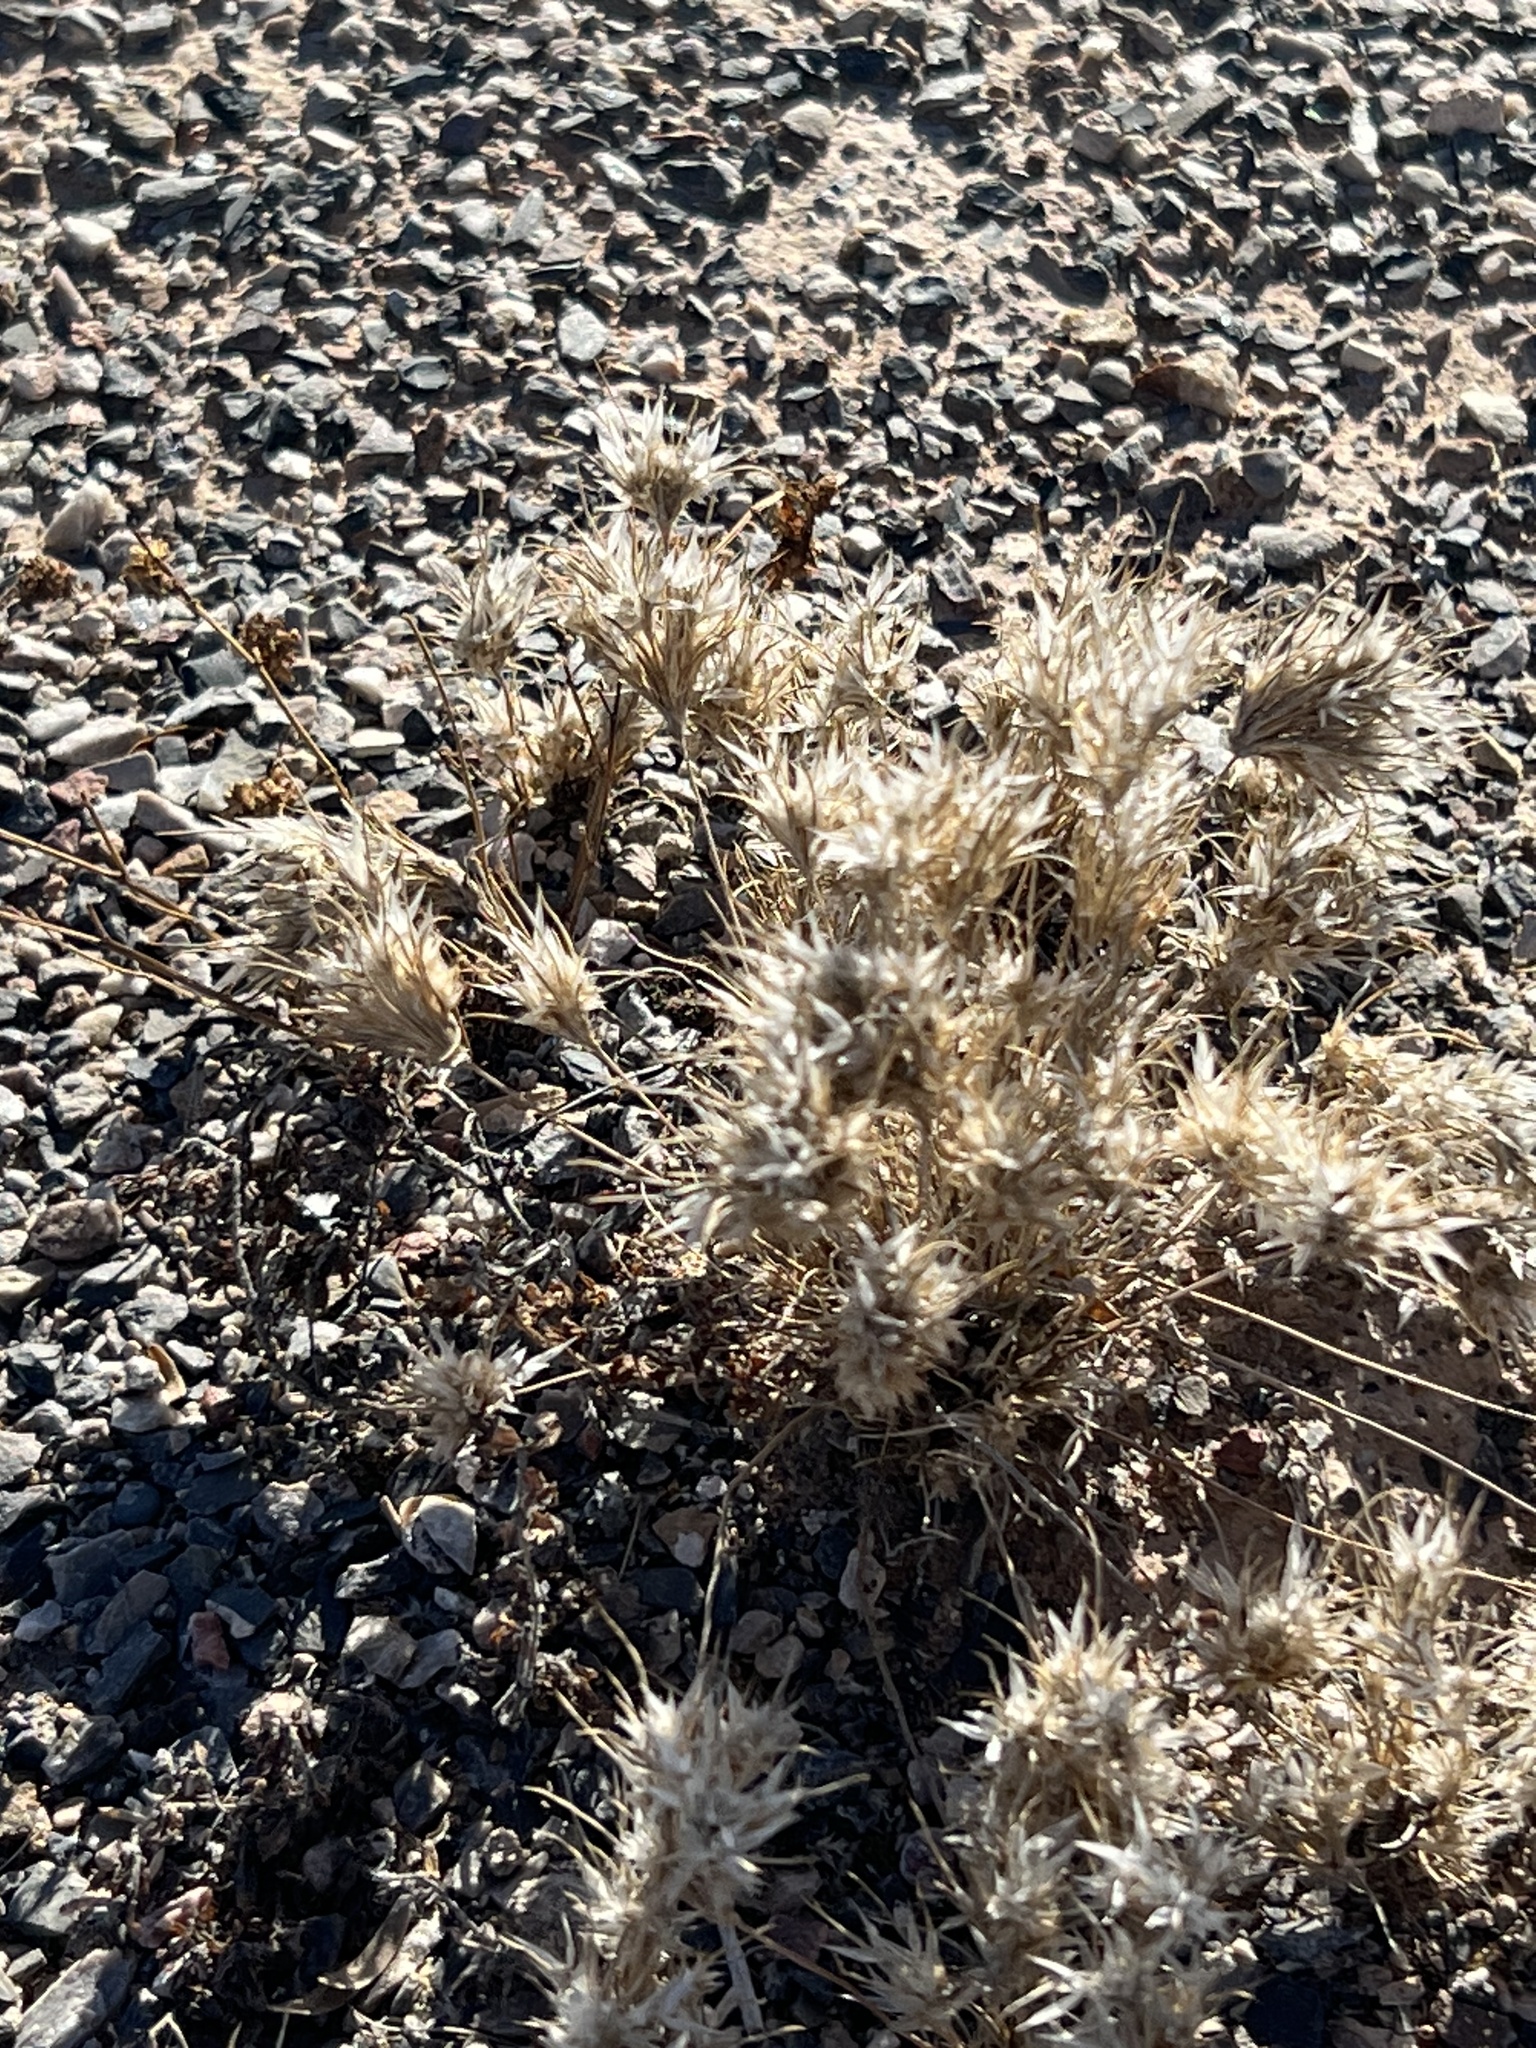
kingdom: Plantae
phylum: Tracheophyta
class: Liliopsida
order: Poales
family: Poaceae
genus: Dasyochloa
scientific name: Dasyochloa pulchella
